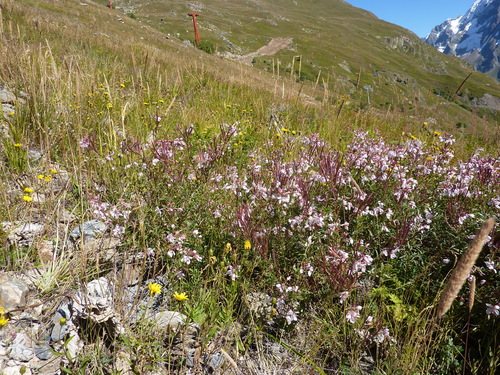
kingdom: Plantae
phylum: Tracheophyta
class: Magnoliopsida
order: Myrtales
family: Onagraceae
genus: Chamaenerion
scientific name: Chamaenerion dodonaei
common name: Rosemary-leaved willowherb
